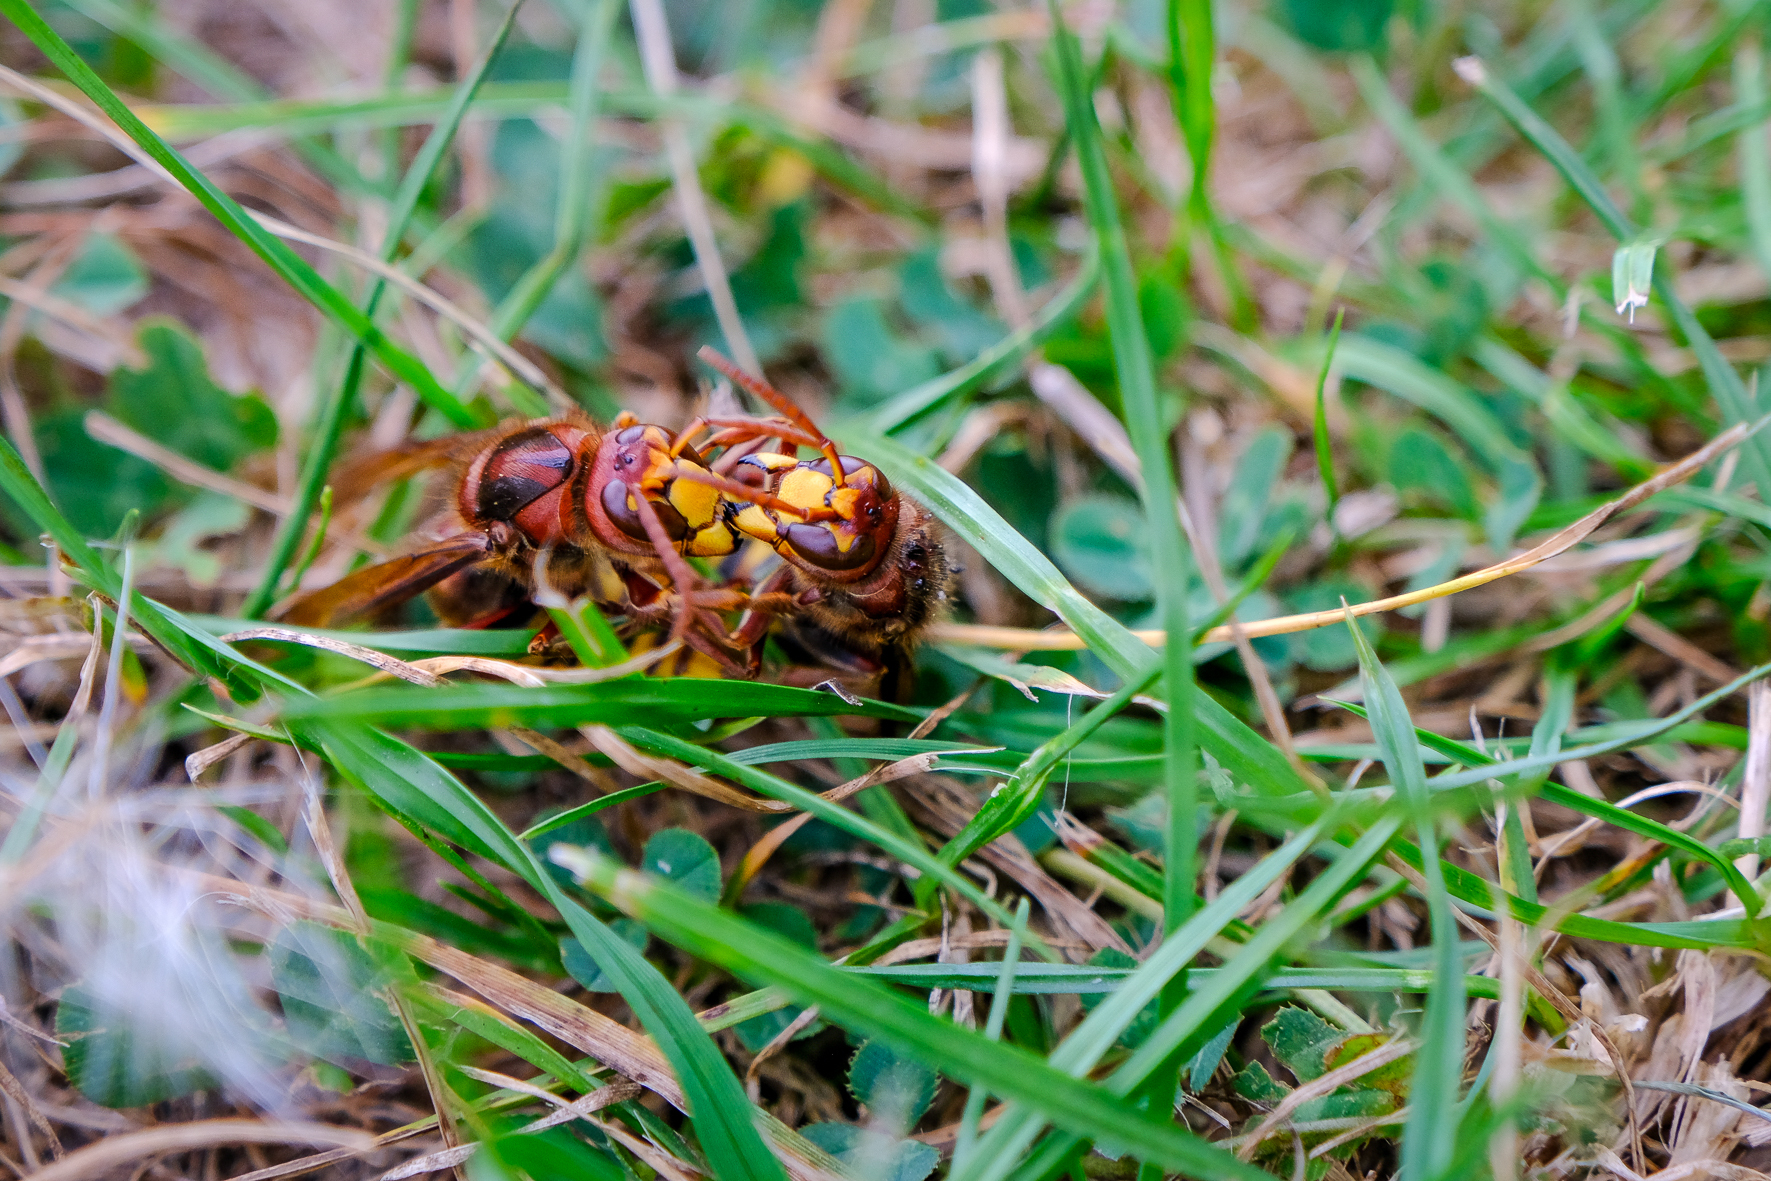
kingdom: Animalia
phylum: Arthropoda
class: Insecta
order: Hymenoptera
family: Vespidae
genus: Vespa
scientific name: Vespa crabro
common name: Hornet
